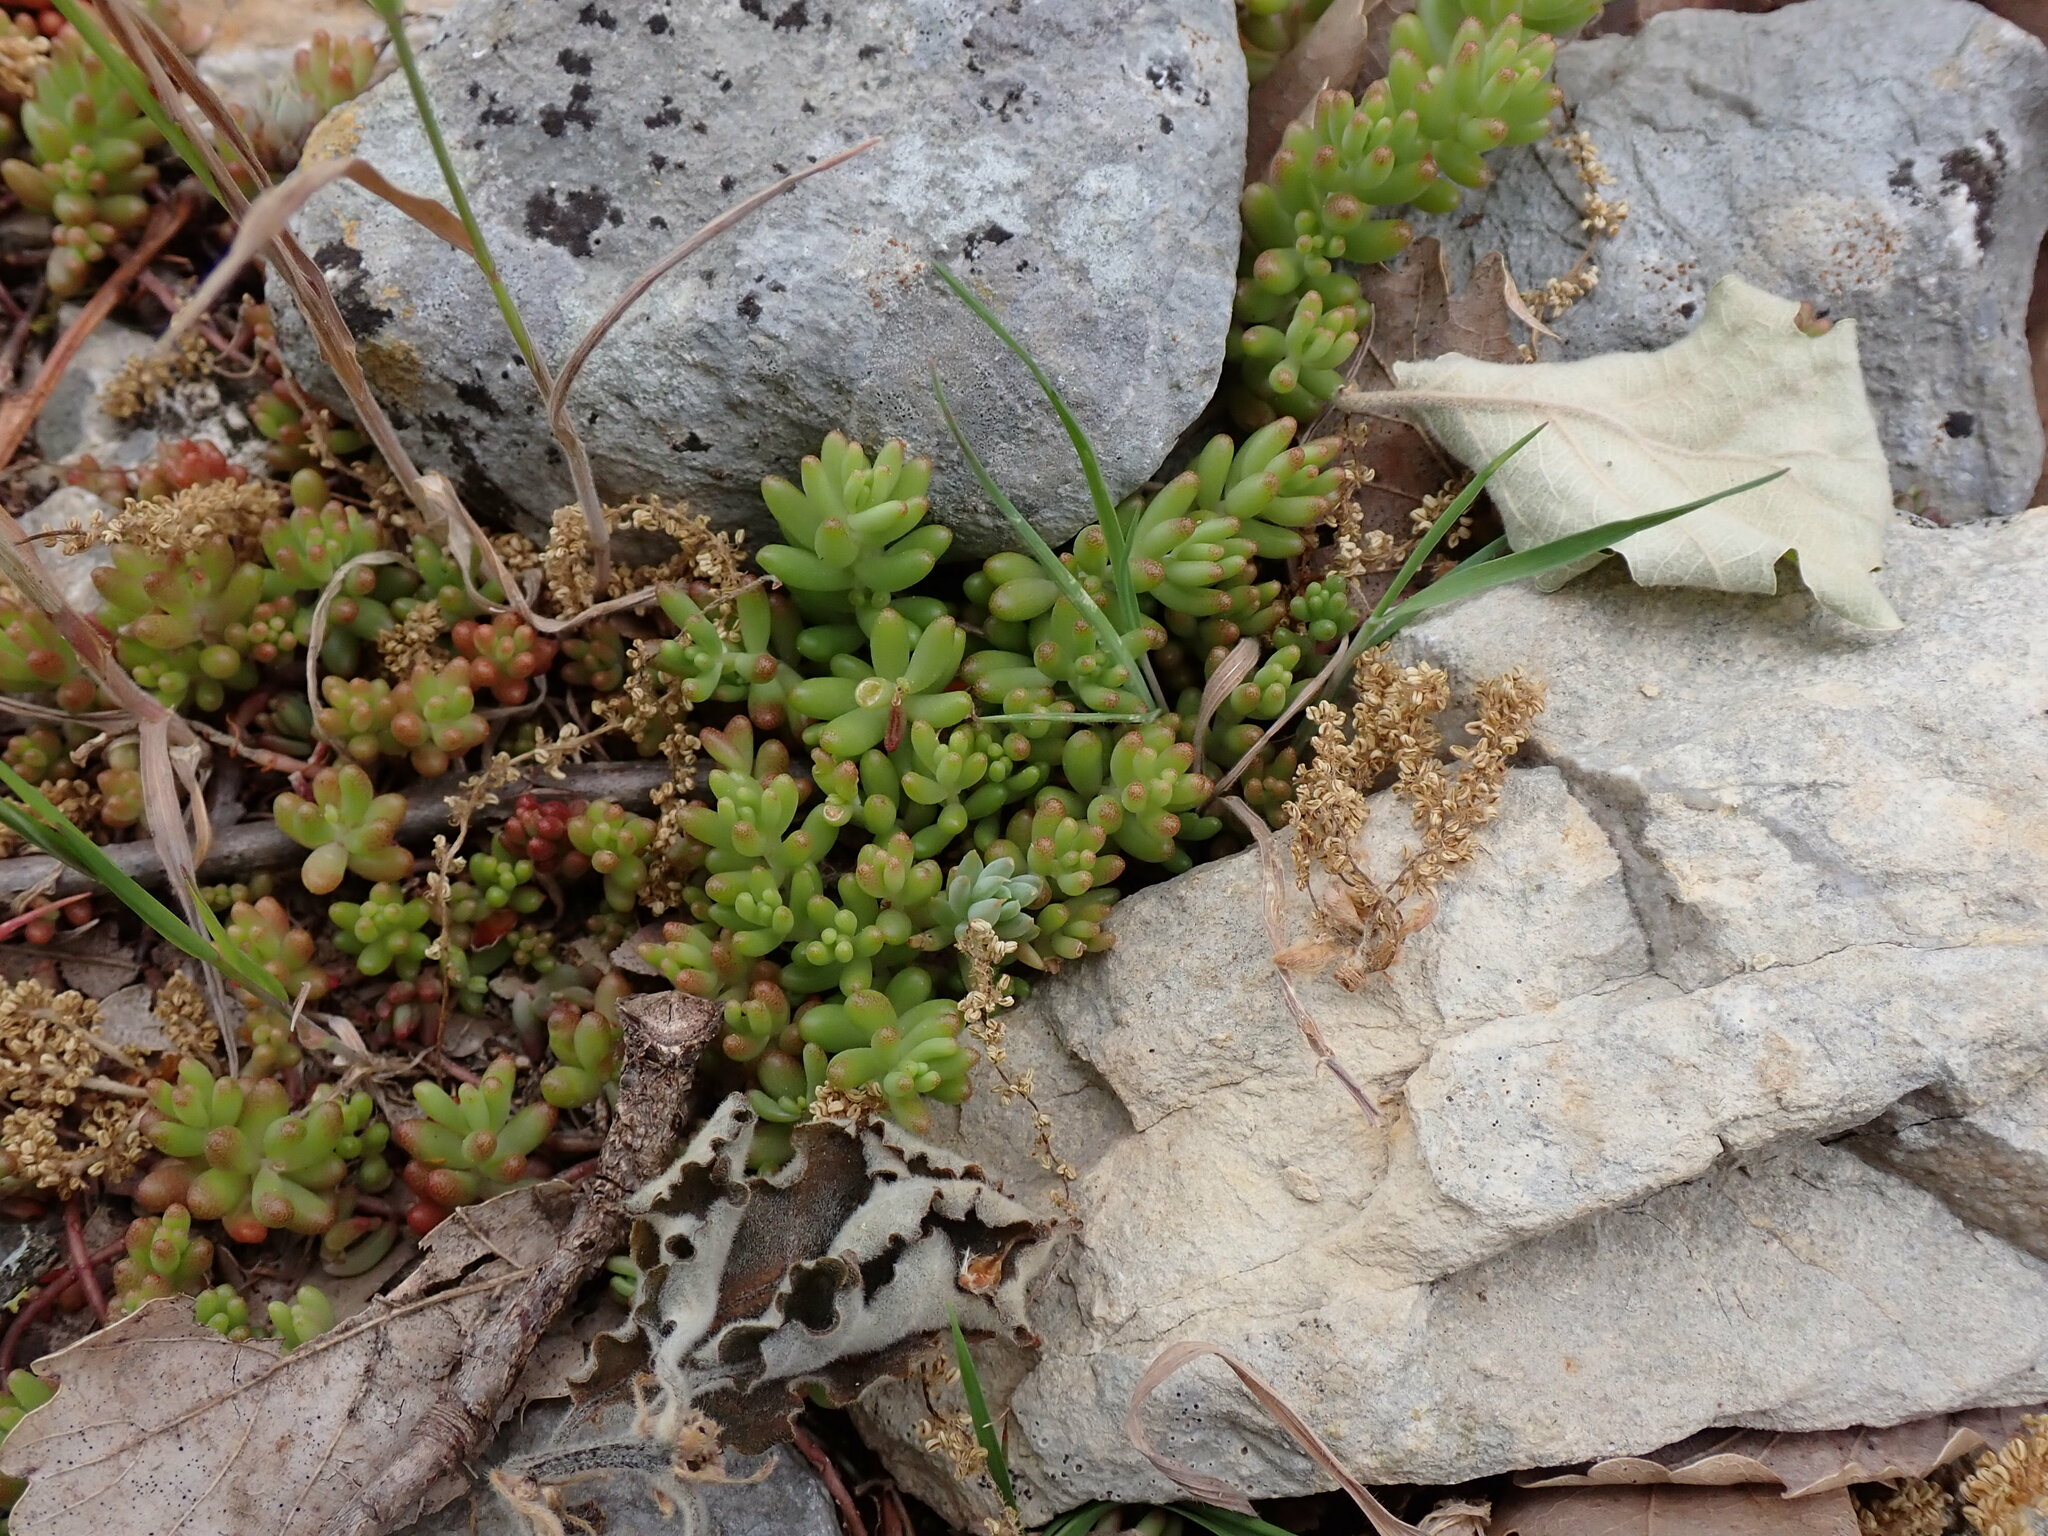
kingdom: Plantae
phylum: Tracheophyta
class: Magnoliopsida
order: Saxifragales
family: Crassulaceae
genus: Sedum
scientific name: Sedum album
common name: White stonecrop
